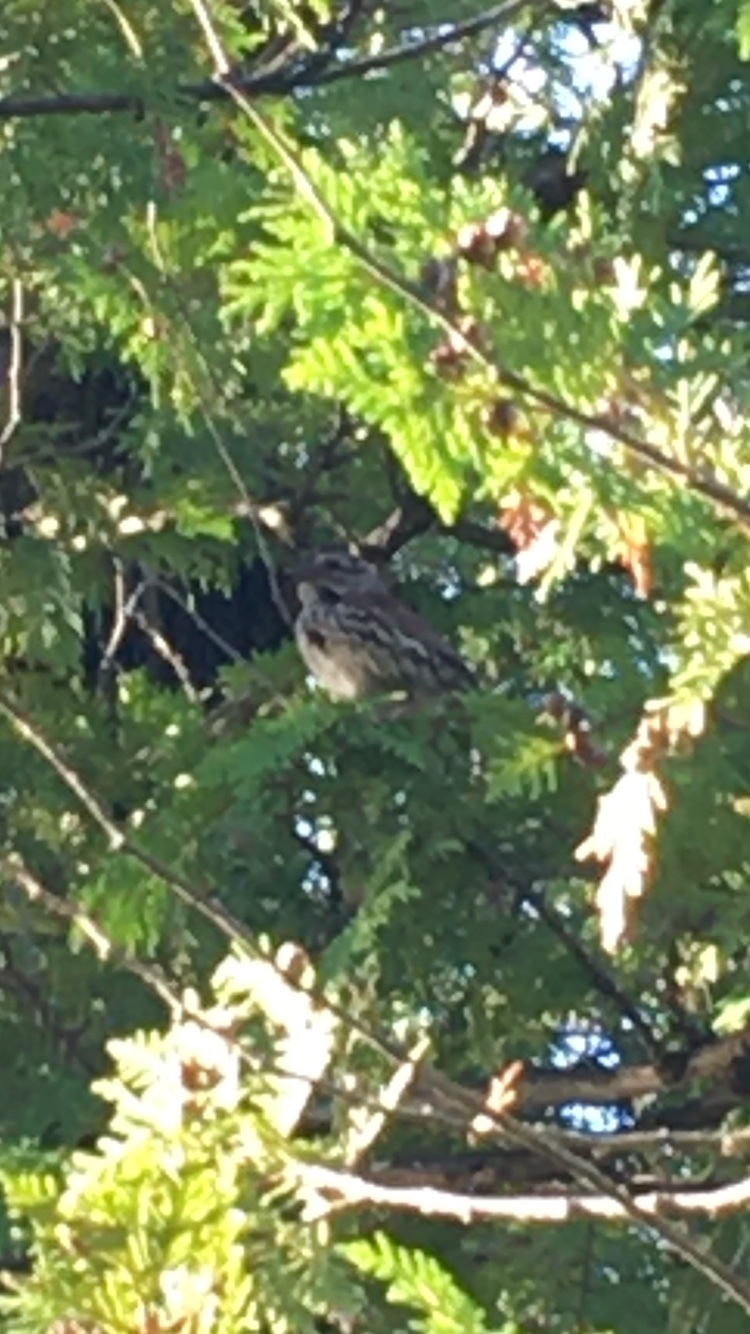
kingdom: Animalia
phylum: Chordata
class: Aves
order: Passeriformes
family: Passerellidae
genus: Melospiza
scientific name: Melospiza melodia
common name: Song sparrow
